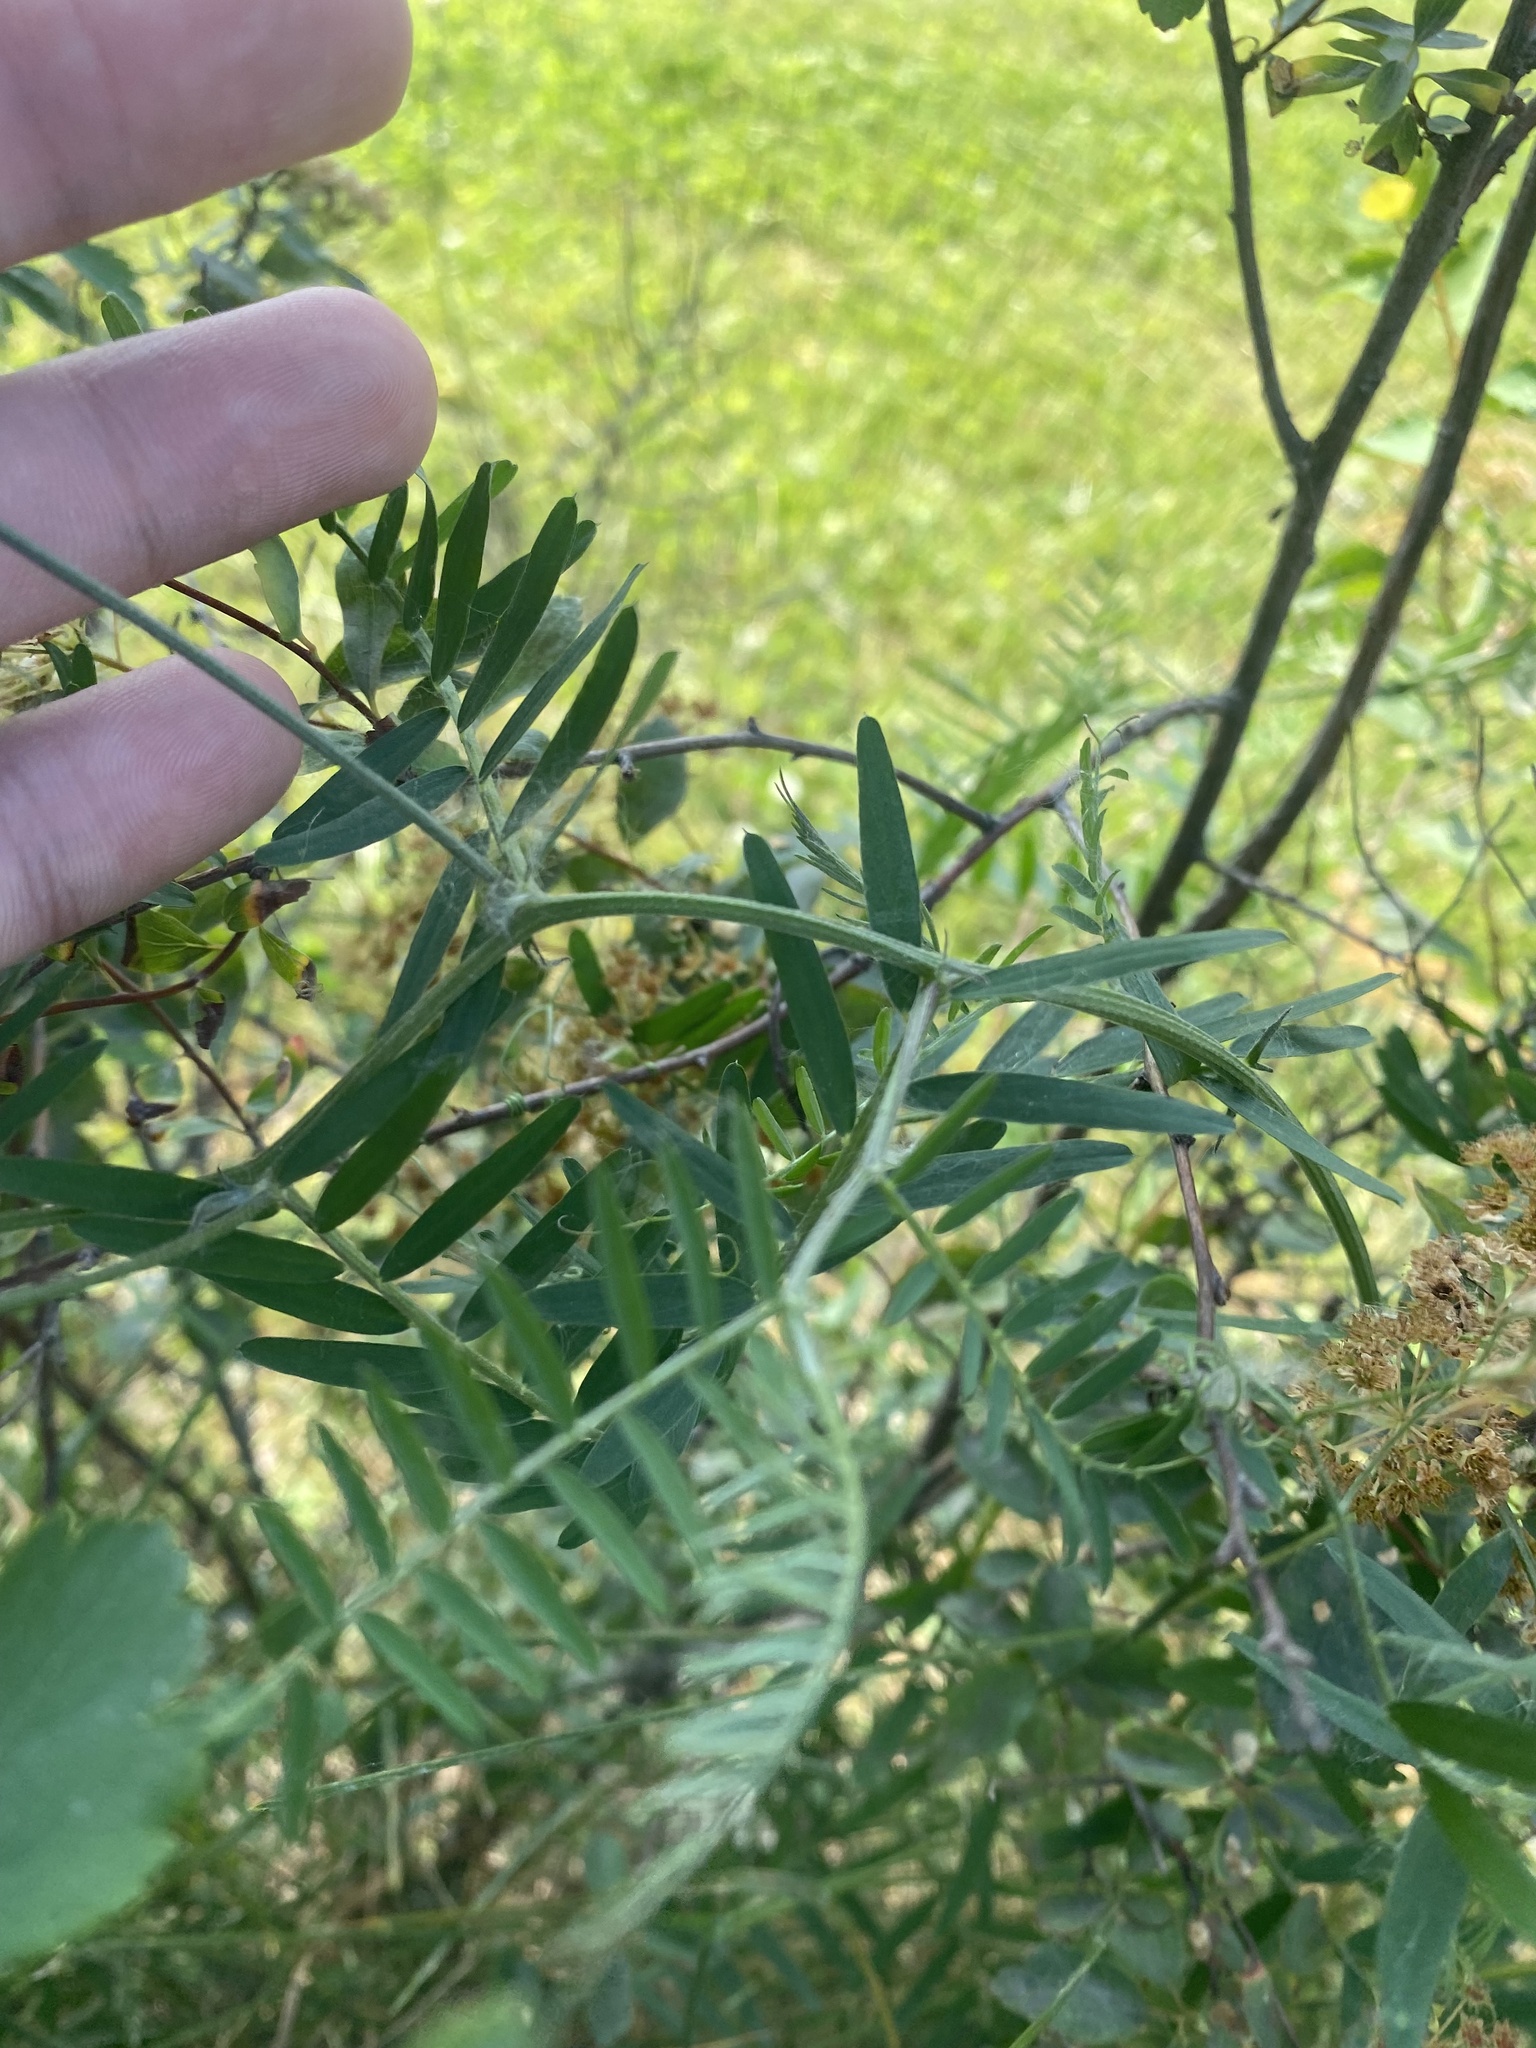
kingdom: Plantae
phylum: Tracheophyta
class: Magnoliopsida
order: Fabales
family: Fabaceae
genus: Vicia
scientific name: Vicia cracca
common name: Bird vetch
